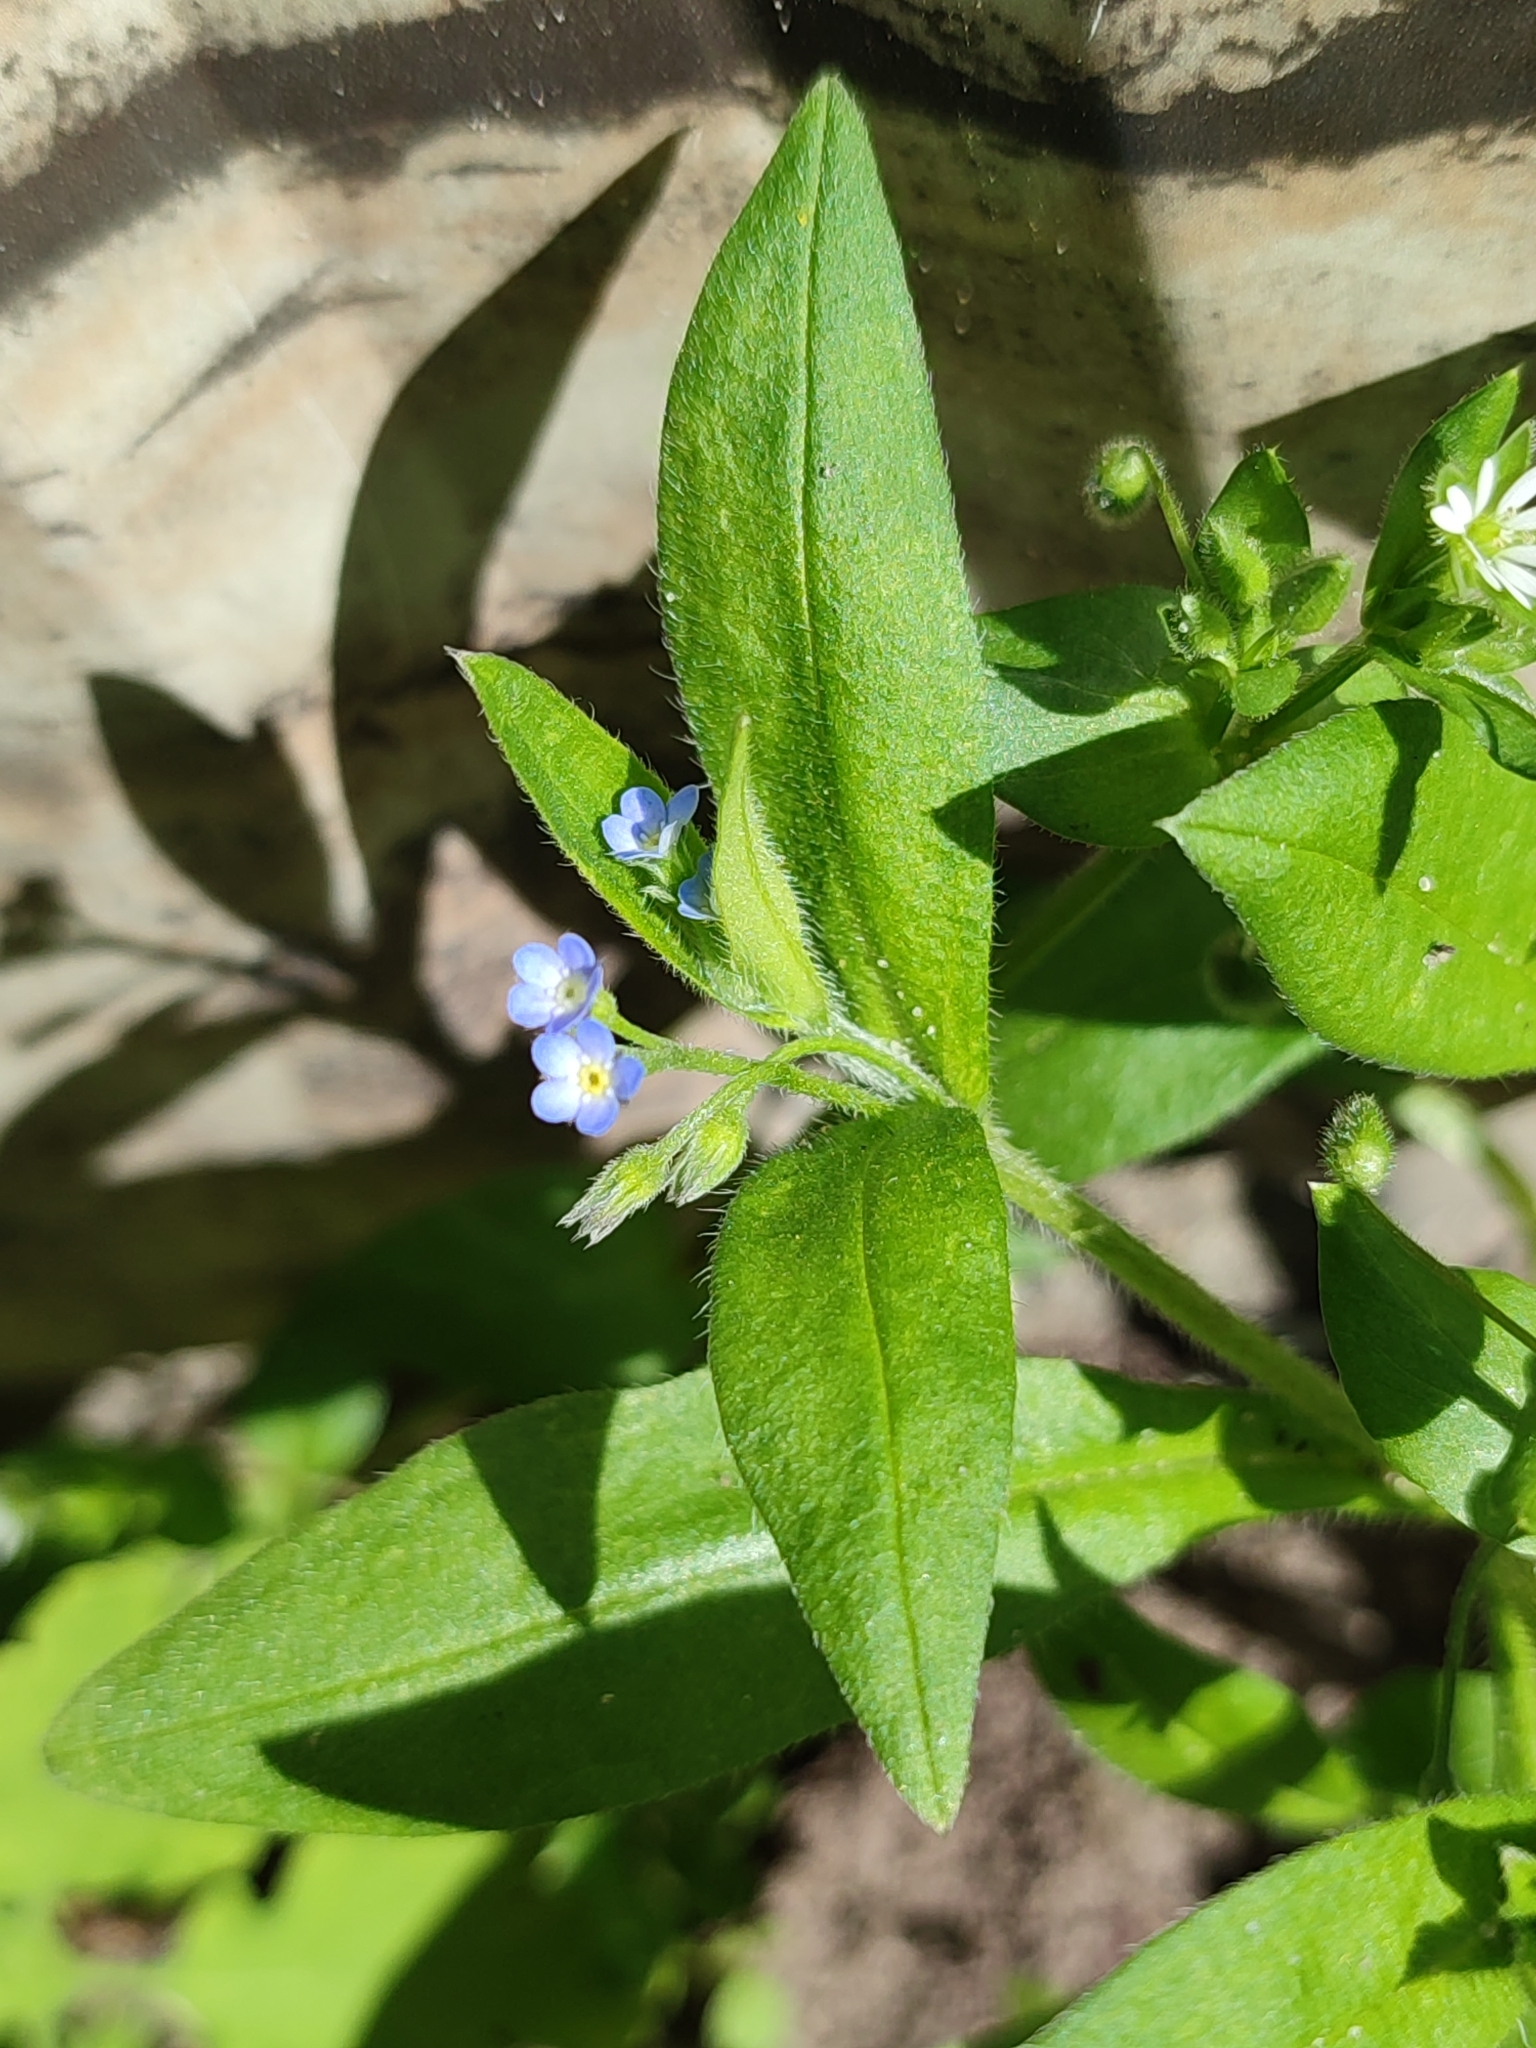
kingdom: Plantae
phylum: Tracheophyta
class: Magnoliopsida
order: Boraginales
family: Boraginaceae
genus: Myosotis
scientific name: Myosotis sparsiflora
